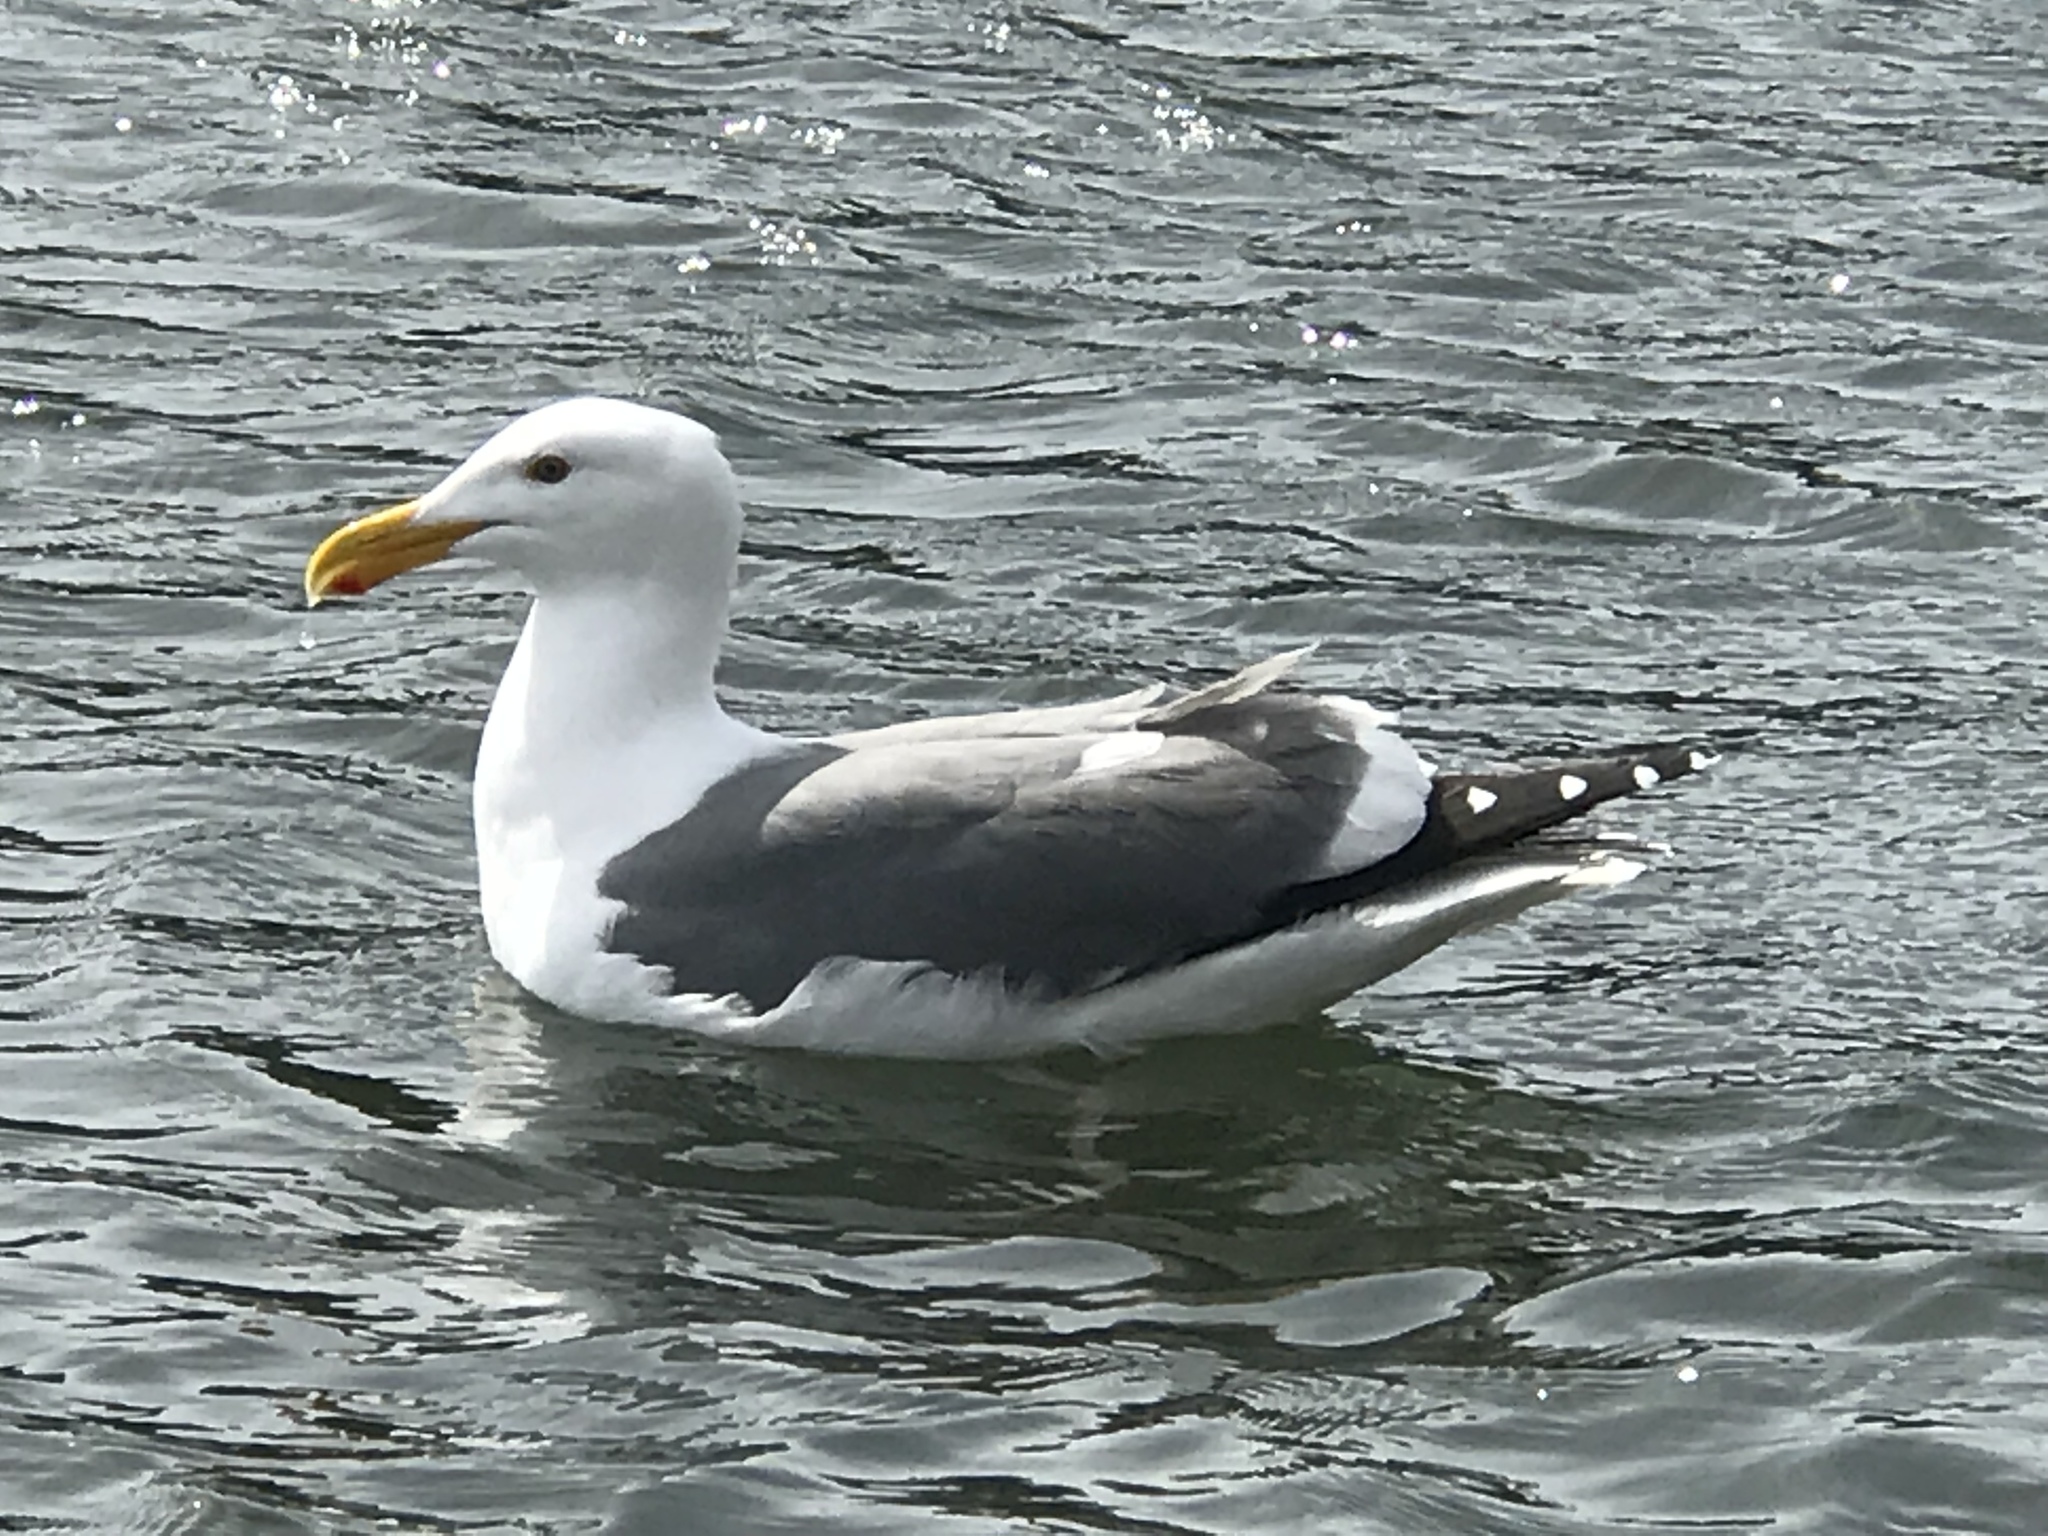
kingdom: Animalia
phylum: Chordata
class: Aves
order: Charadriiformes
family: Laridae
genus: Larus
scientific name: Larus occidentalis
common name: Western gull
